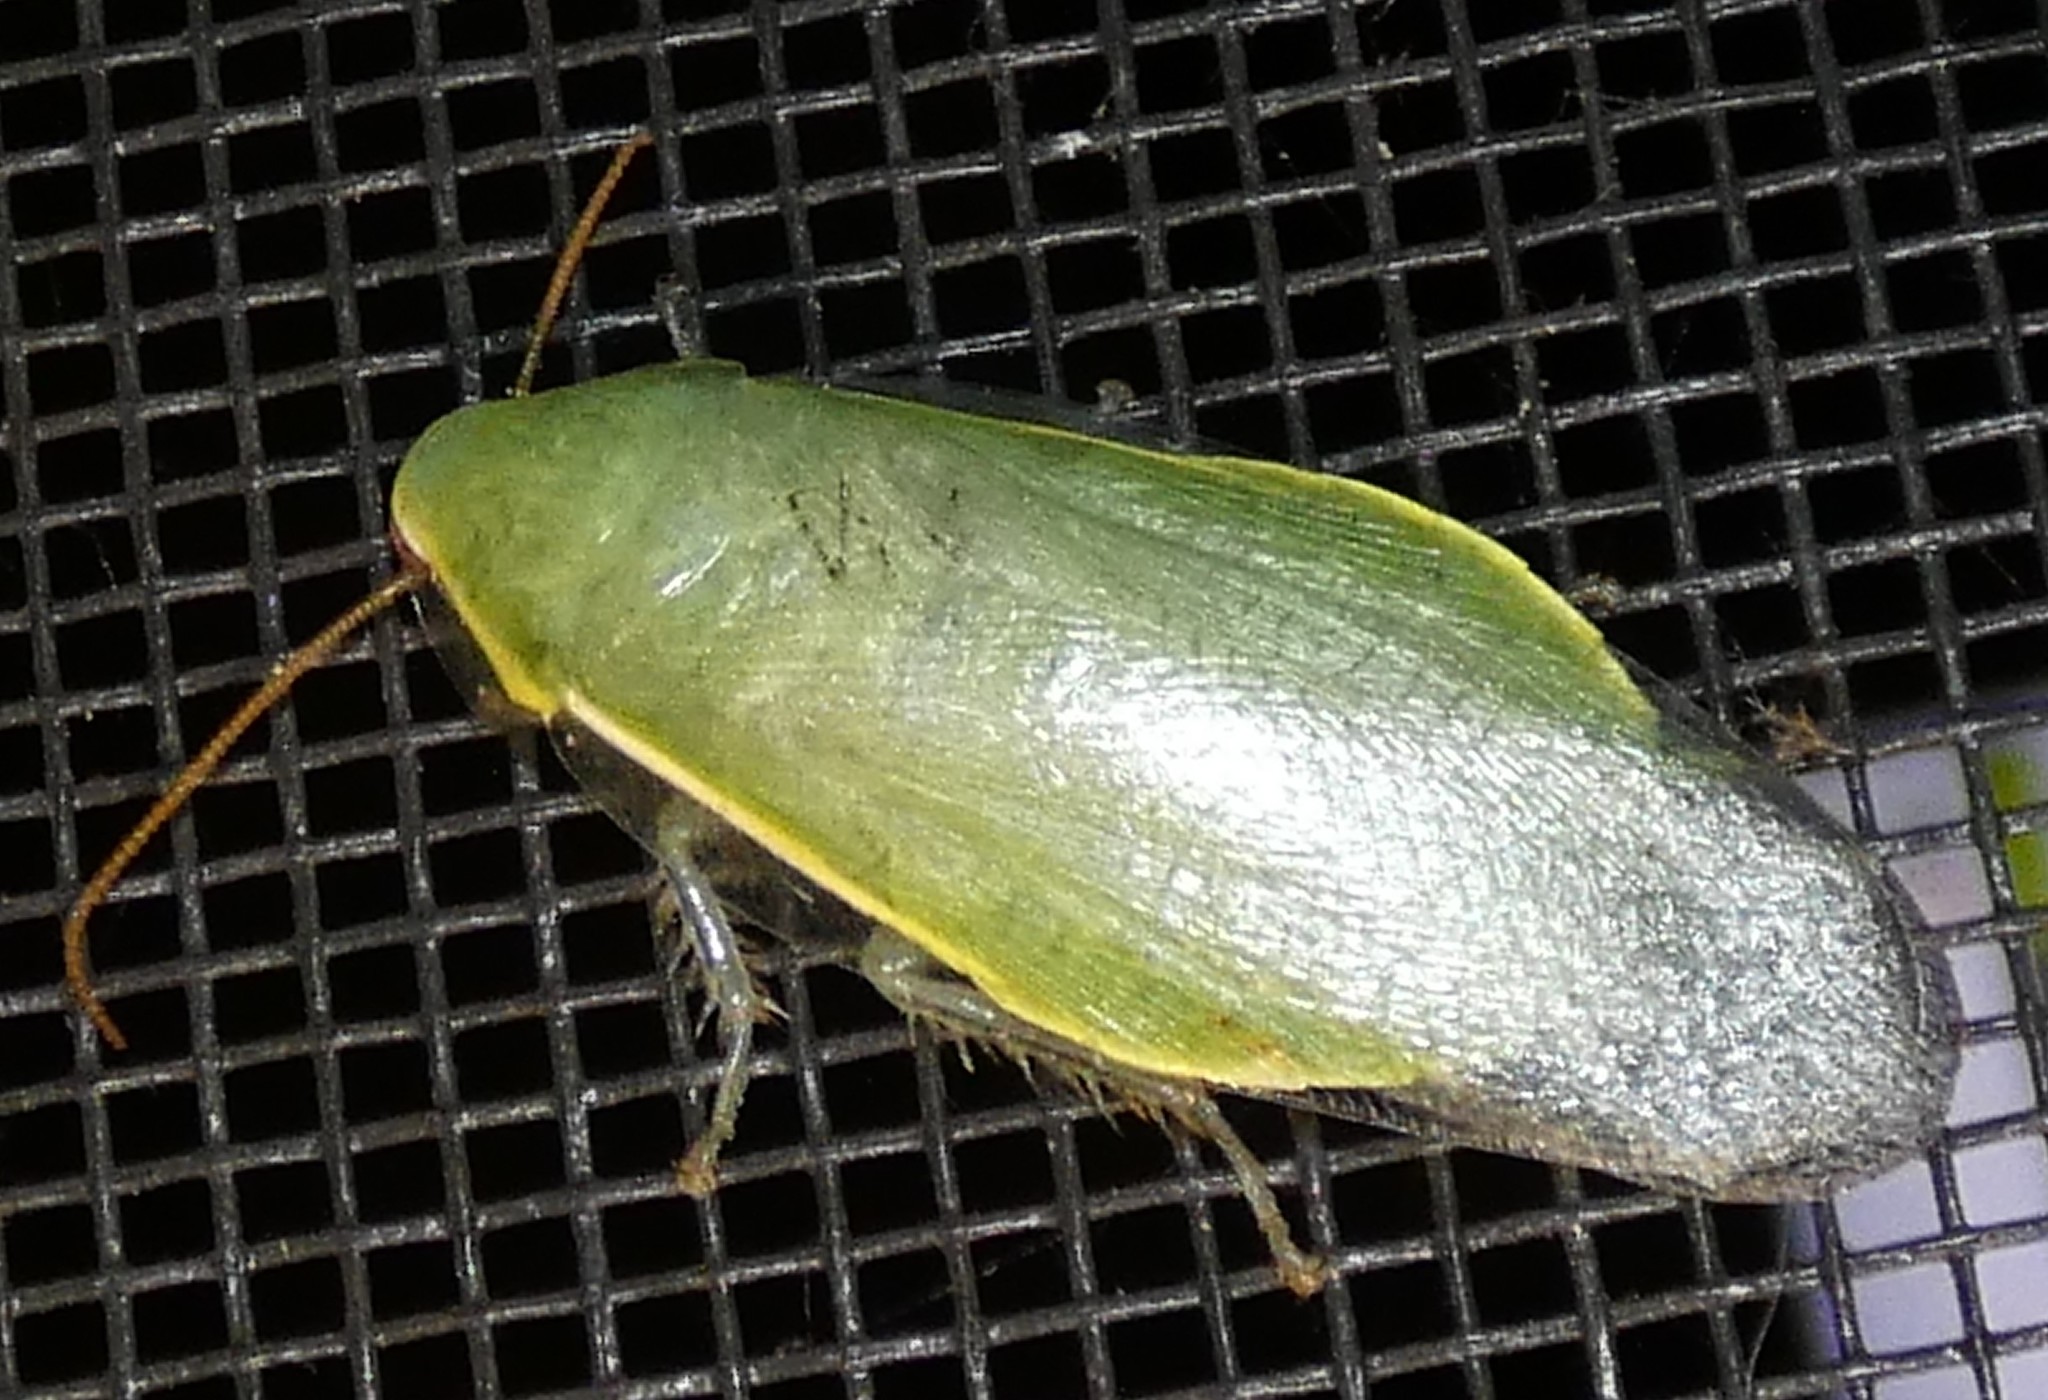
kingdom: Animalia
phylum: Arthropoda
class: Insecta
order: Blattodea
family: Blaberidae
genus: Panchlora
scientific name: Panchlora nivea
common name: Cuban cockroach
